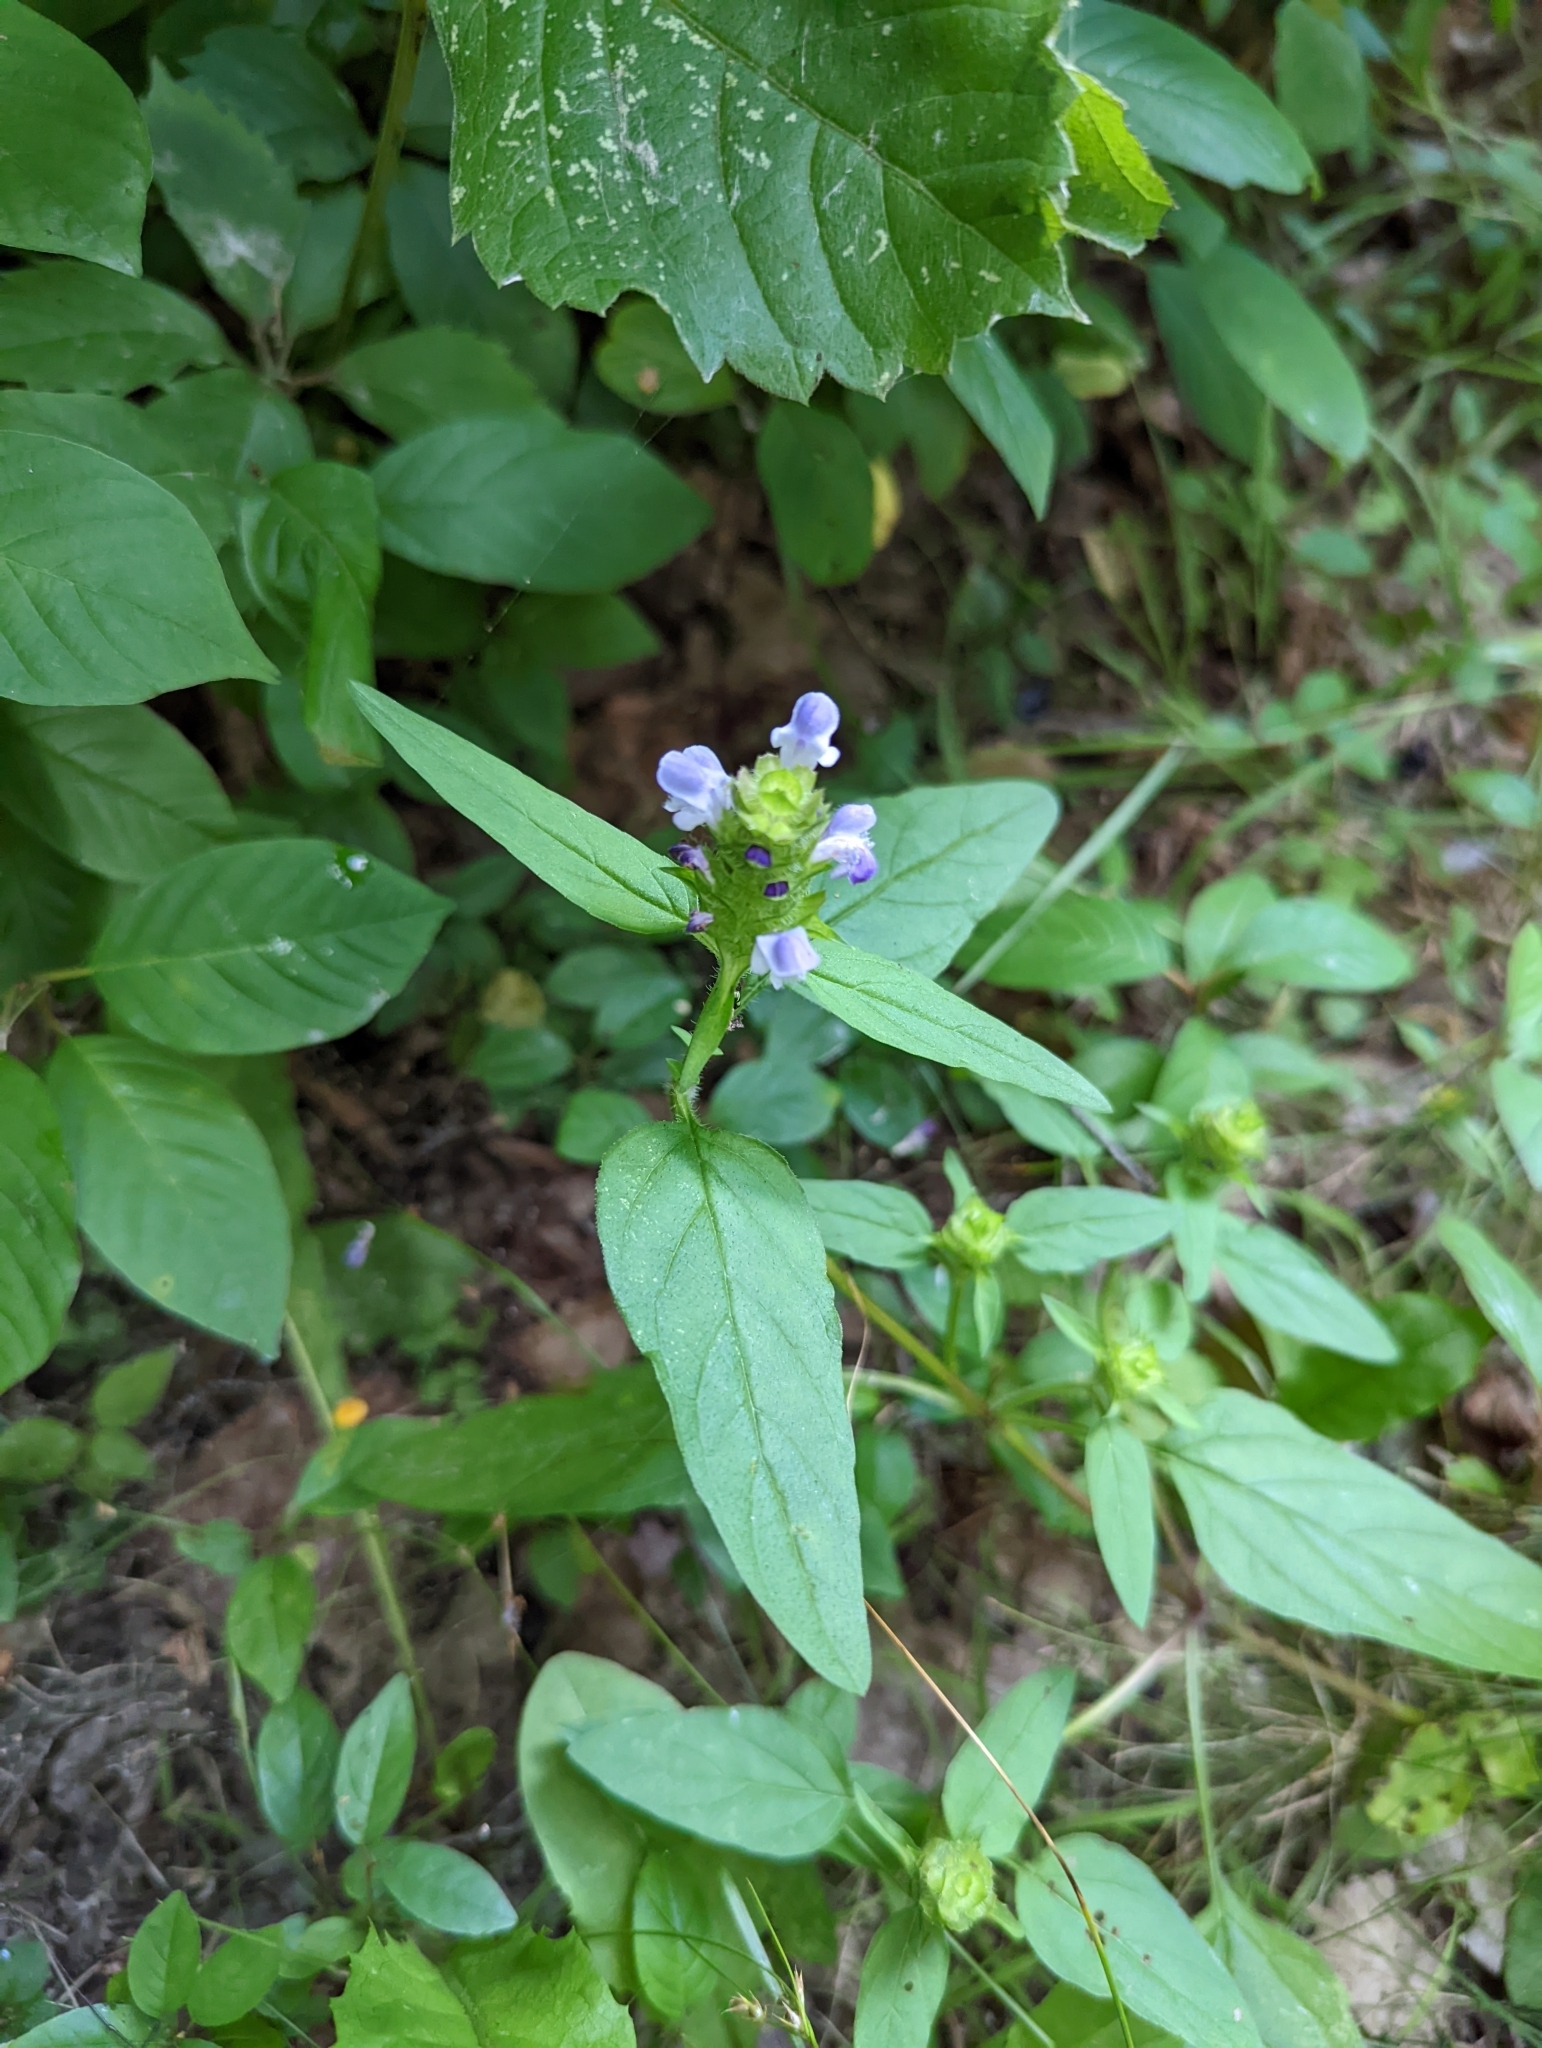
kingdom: Plantae
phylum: Tracheophyta
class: Magnoliopsida
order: Lamiales
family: Lamiaceae
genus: Prunella
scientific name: Prunella vulgaris
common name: Heal-all
